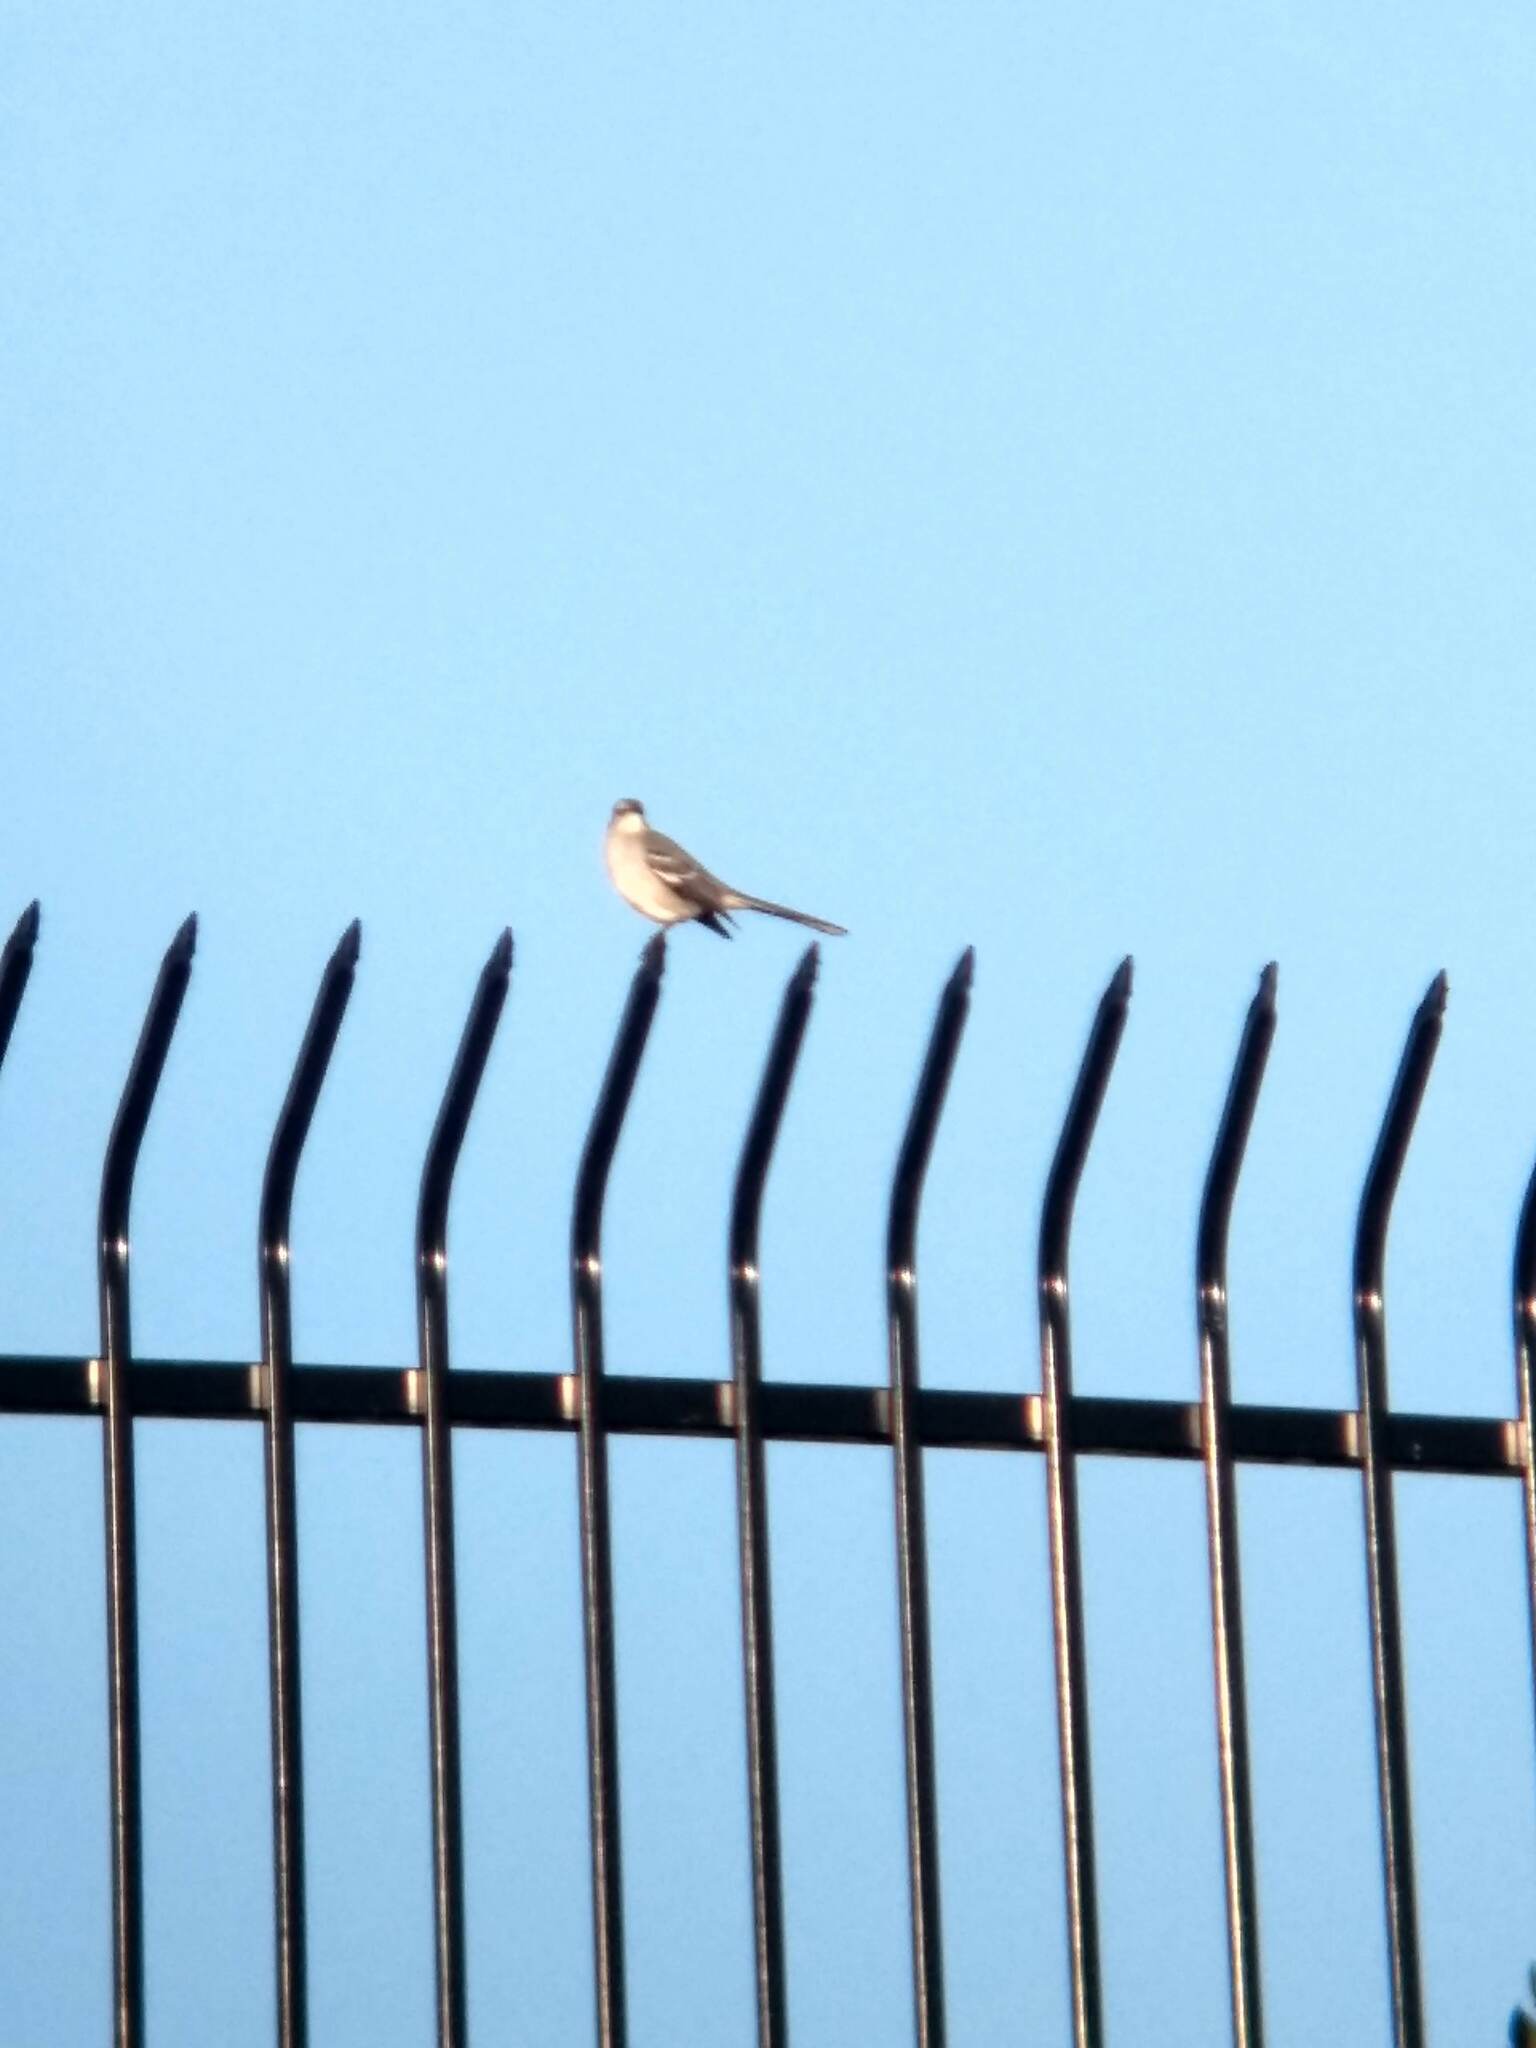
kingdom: Animalia
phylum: Chordata
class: Aves
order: Passeriformes
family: Mimidae
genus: Mimus
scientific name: Mimus polyglottos
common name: Northern mockingbird
